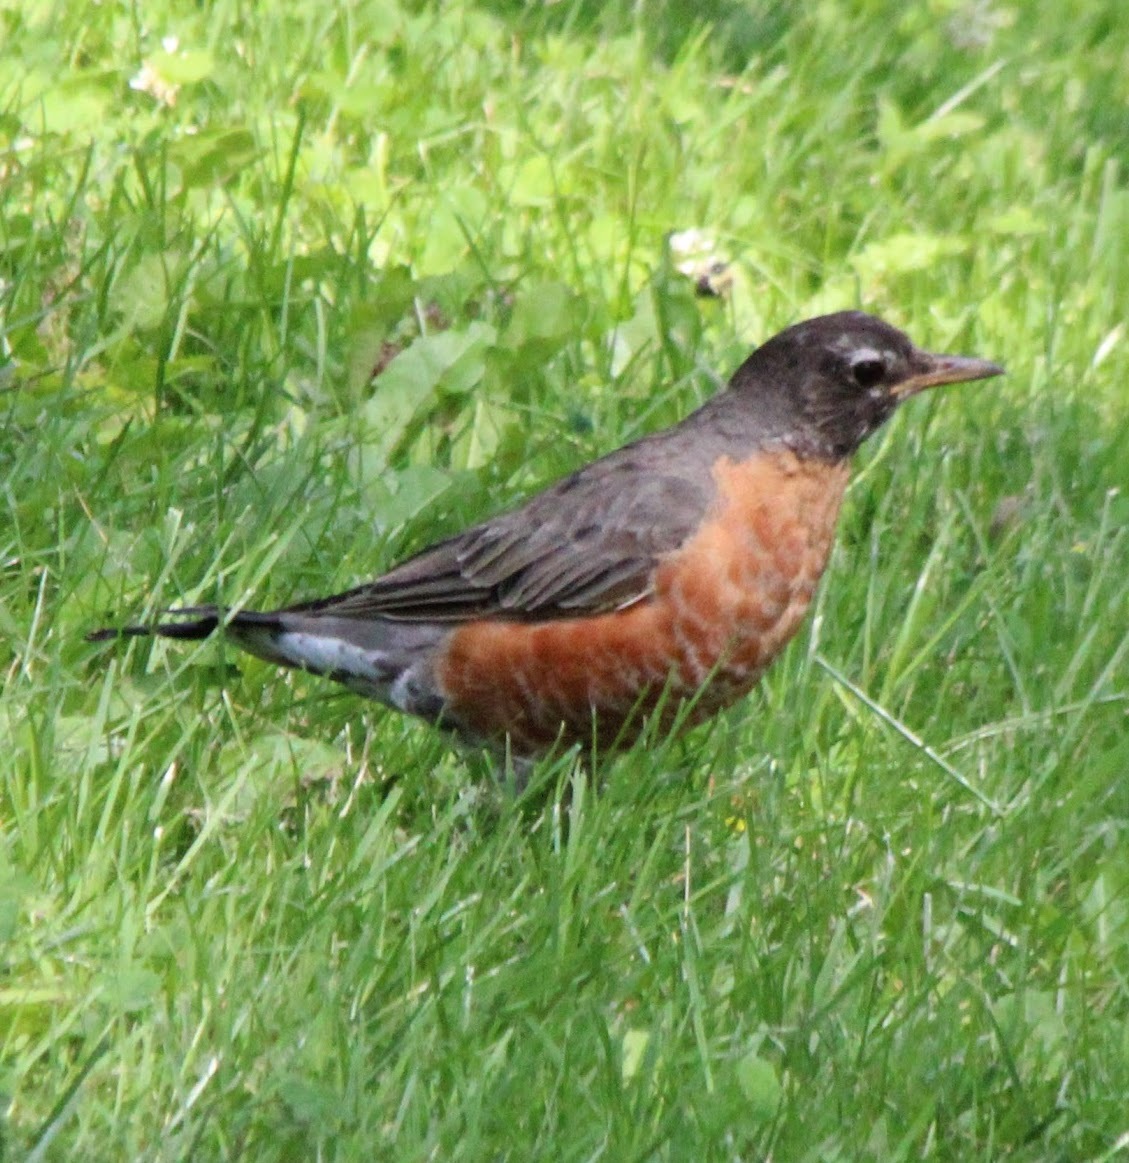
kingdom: Animalia
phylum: Chordata
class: Aves
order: Passeriformes
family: Turdidae
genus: Turdus
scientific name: Turdus migratorius
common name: American robin
